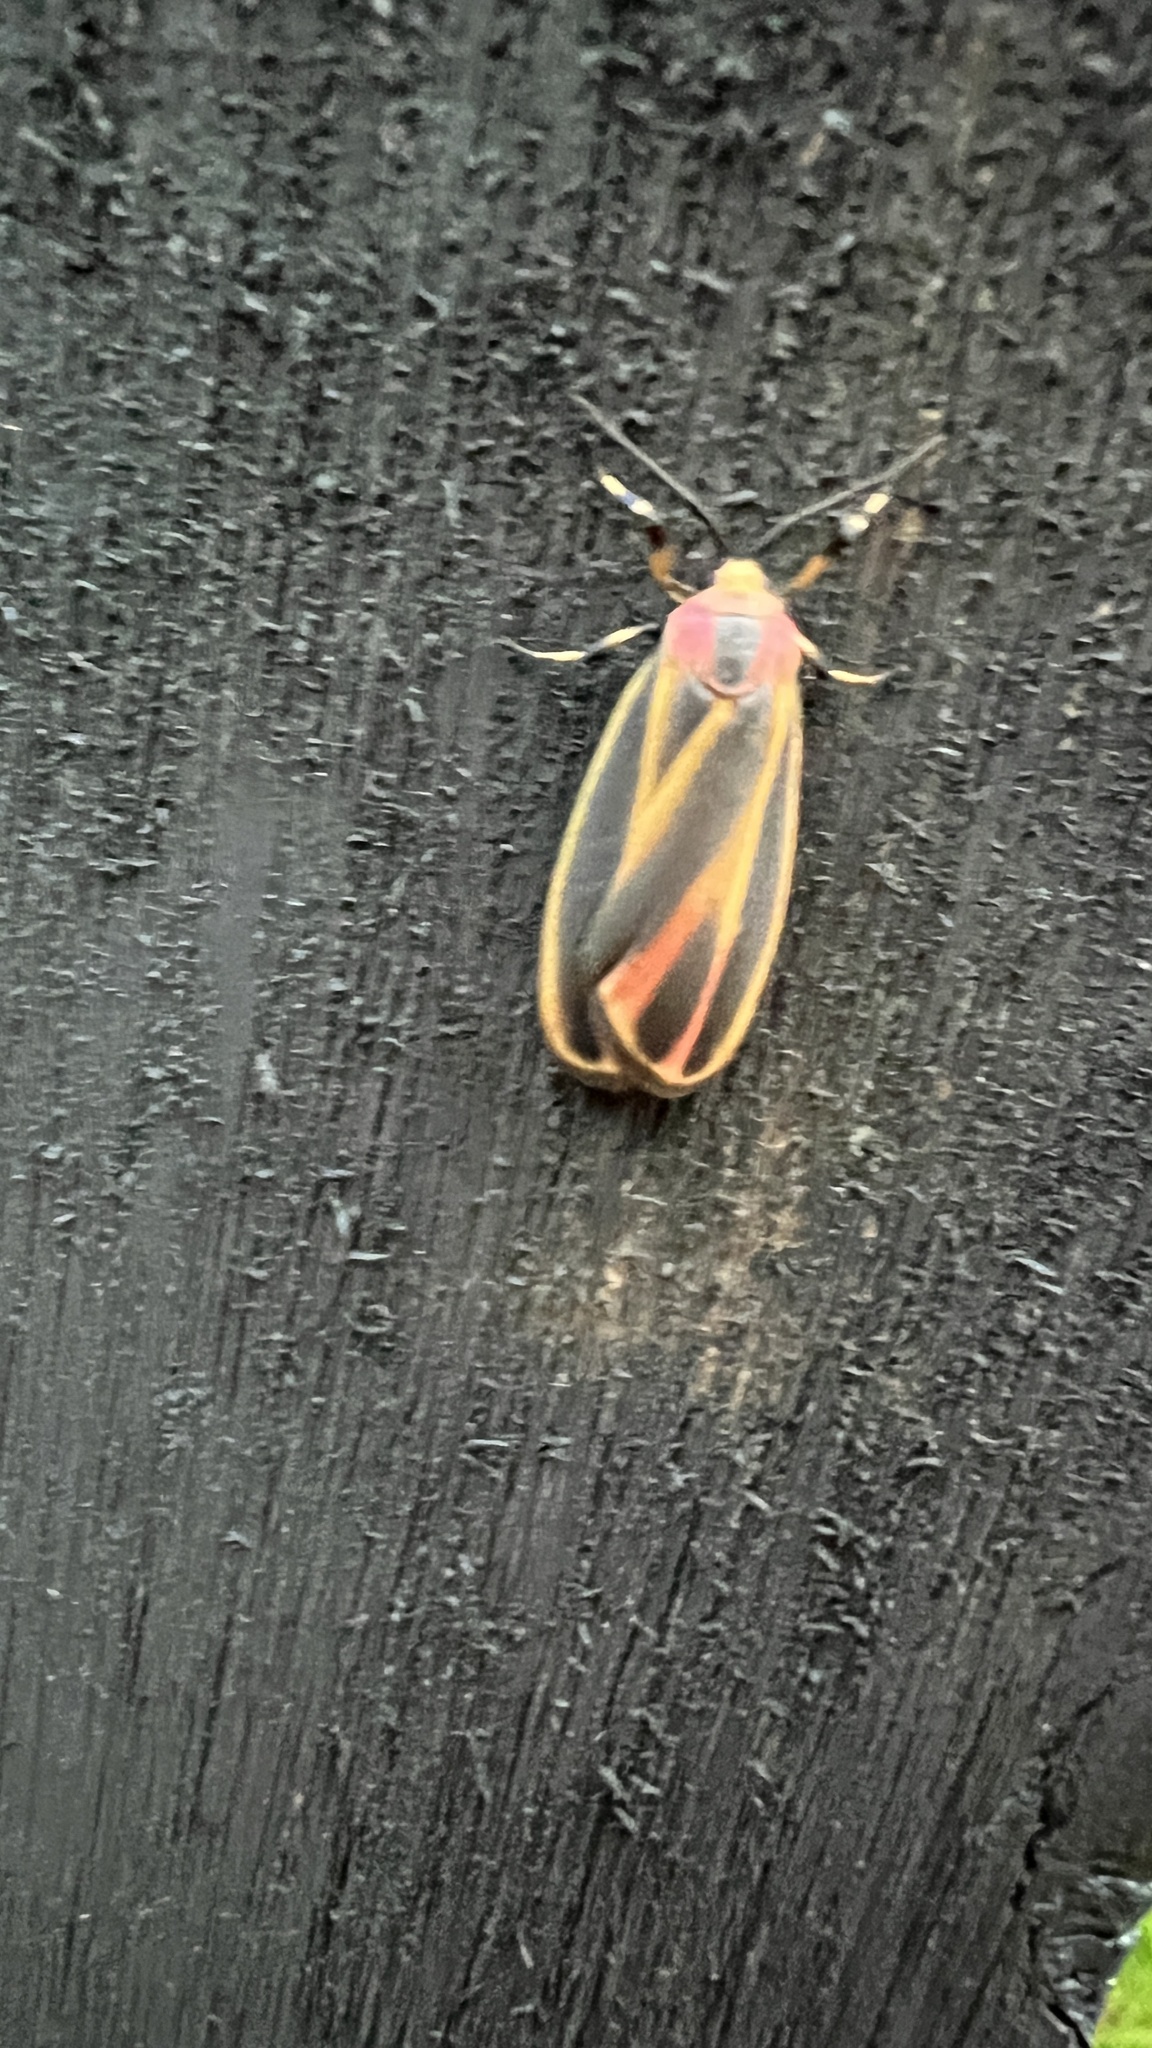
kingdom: Animalia
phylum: Arthropoda
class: Insecta
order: Lepidoptera
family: Erebidae
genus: Hypoprepia
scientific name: Hypoprepia fucosa
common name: Painted lichen moth
